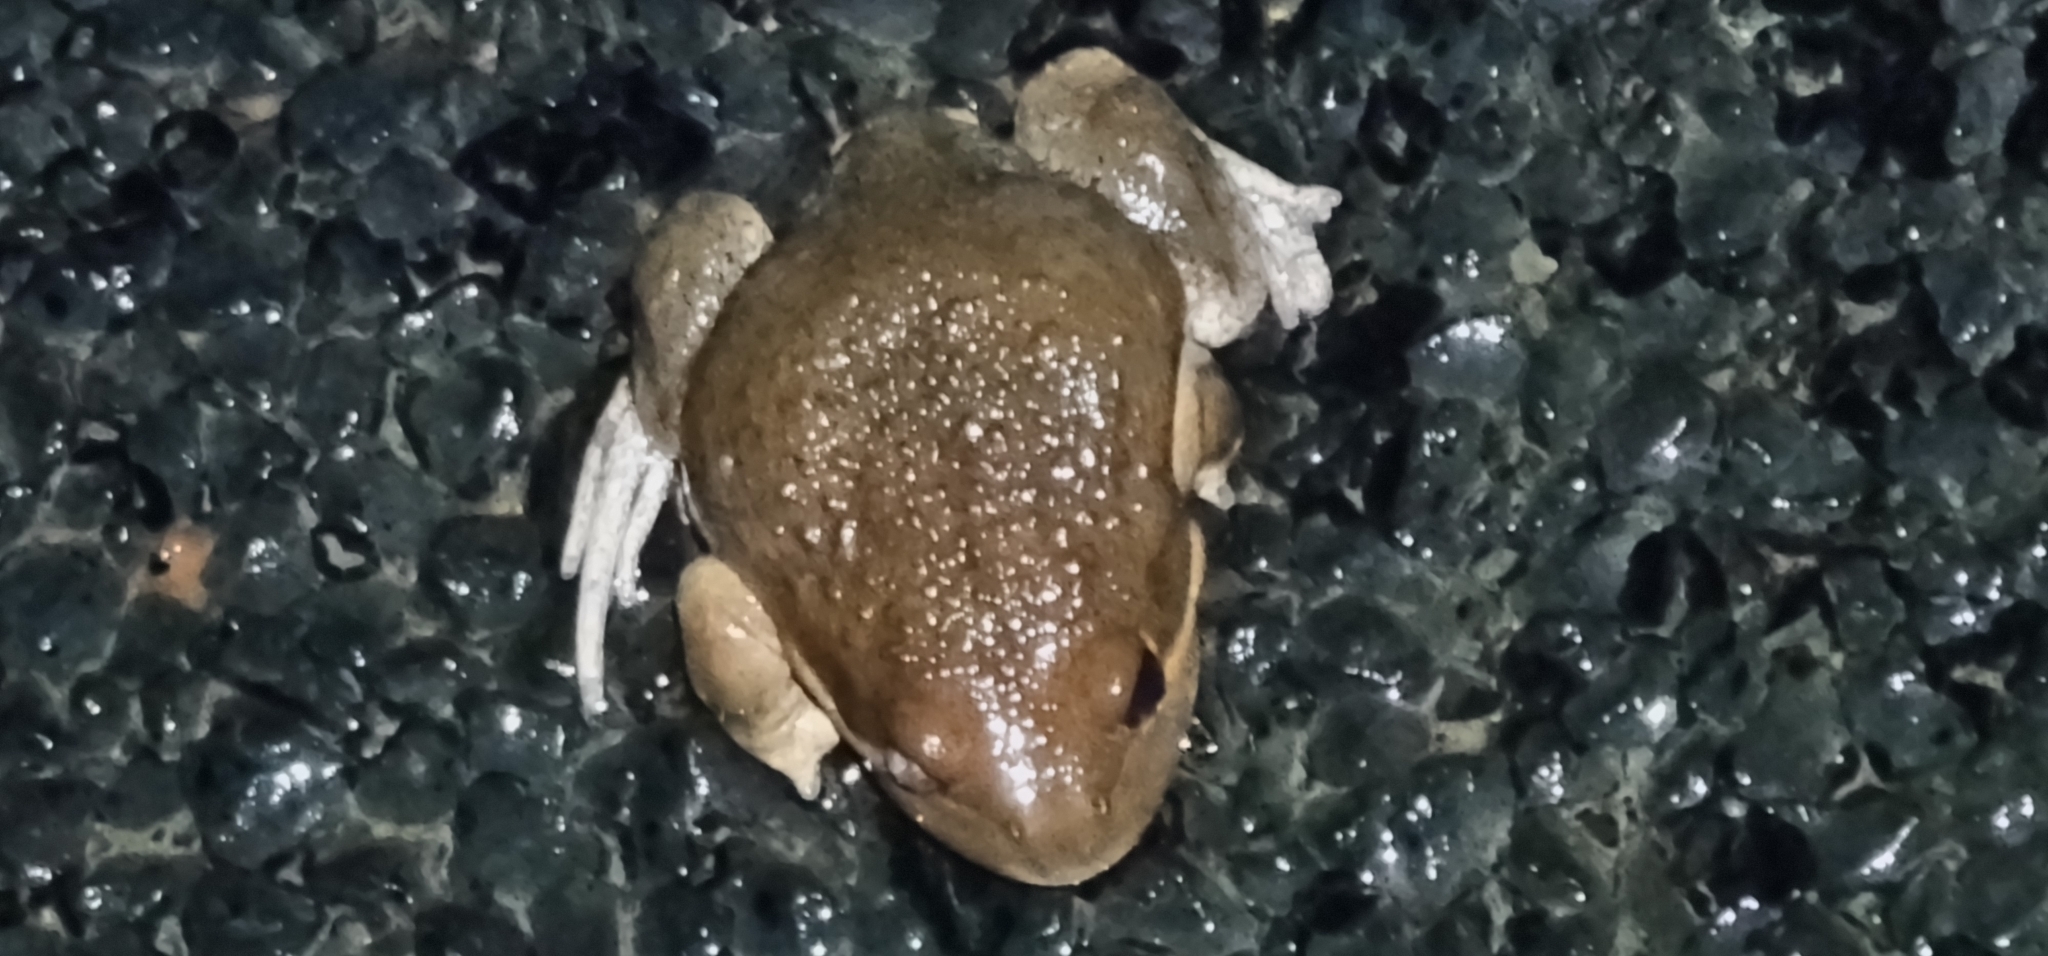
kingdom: Animalia
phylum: Chordata
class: Amphibia
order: Anura
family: Limnodynastidae
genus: Limnodynastes
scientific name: Limnodynastes dumerilii
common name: Banjo frog
